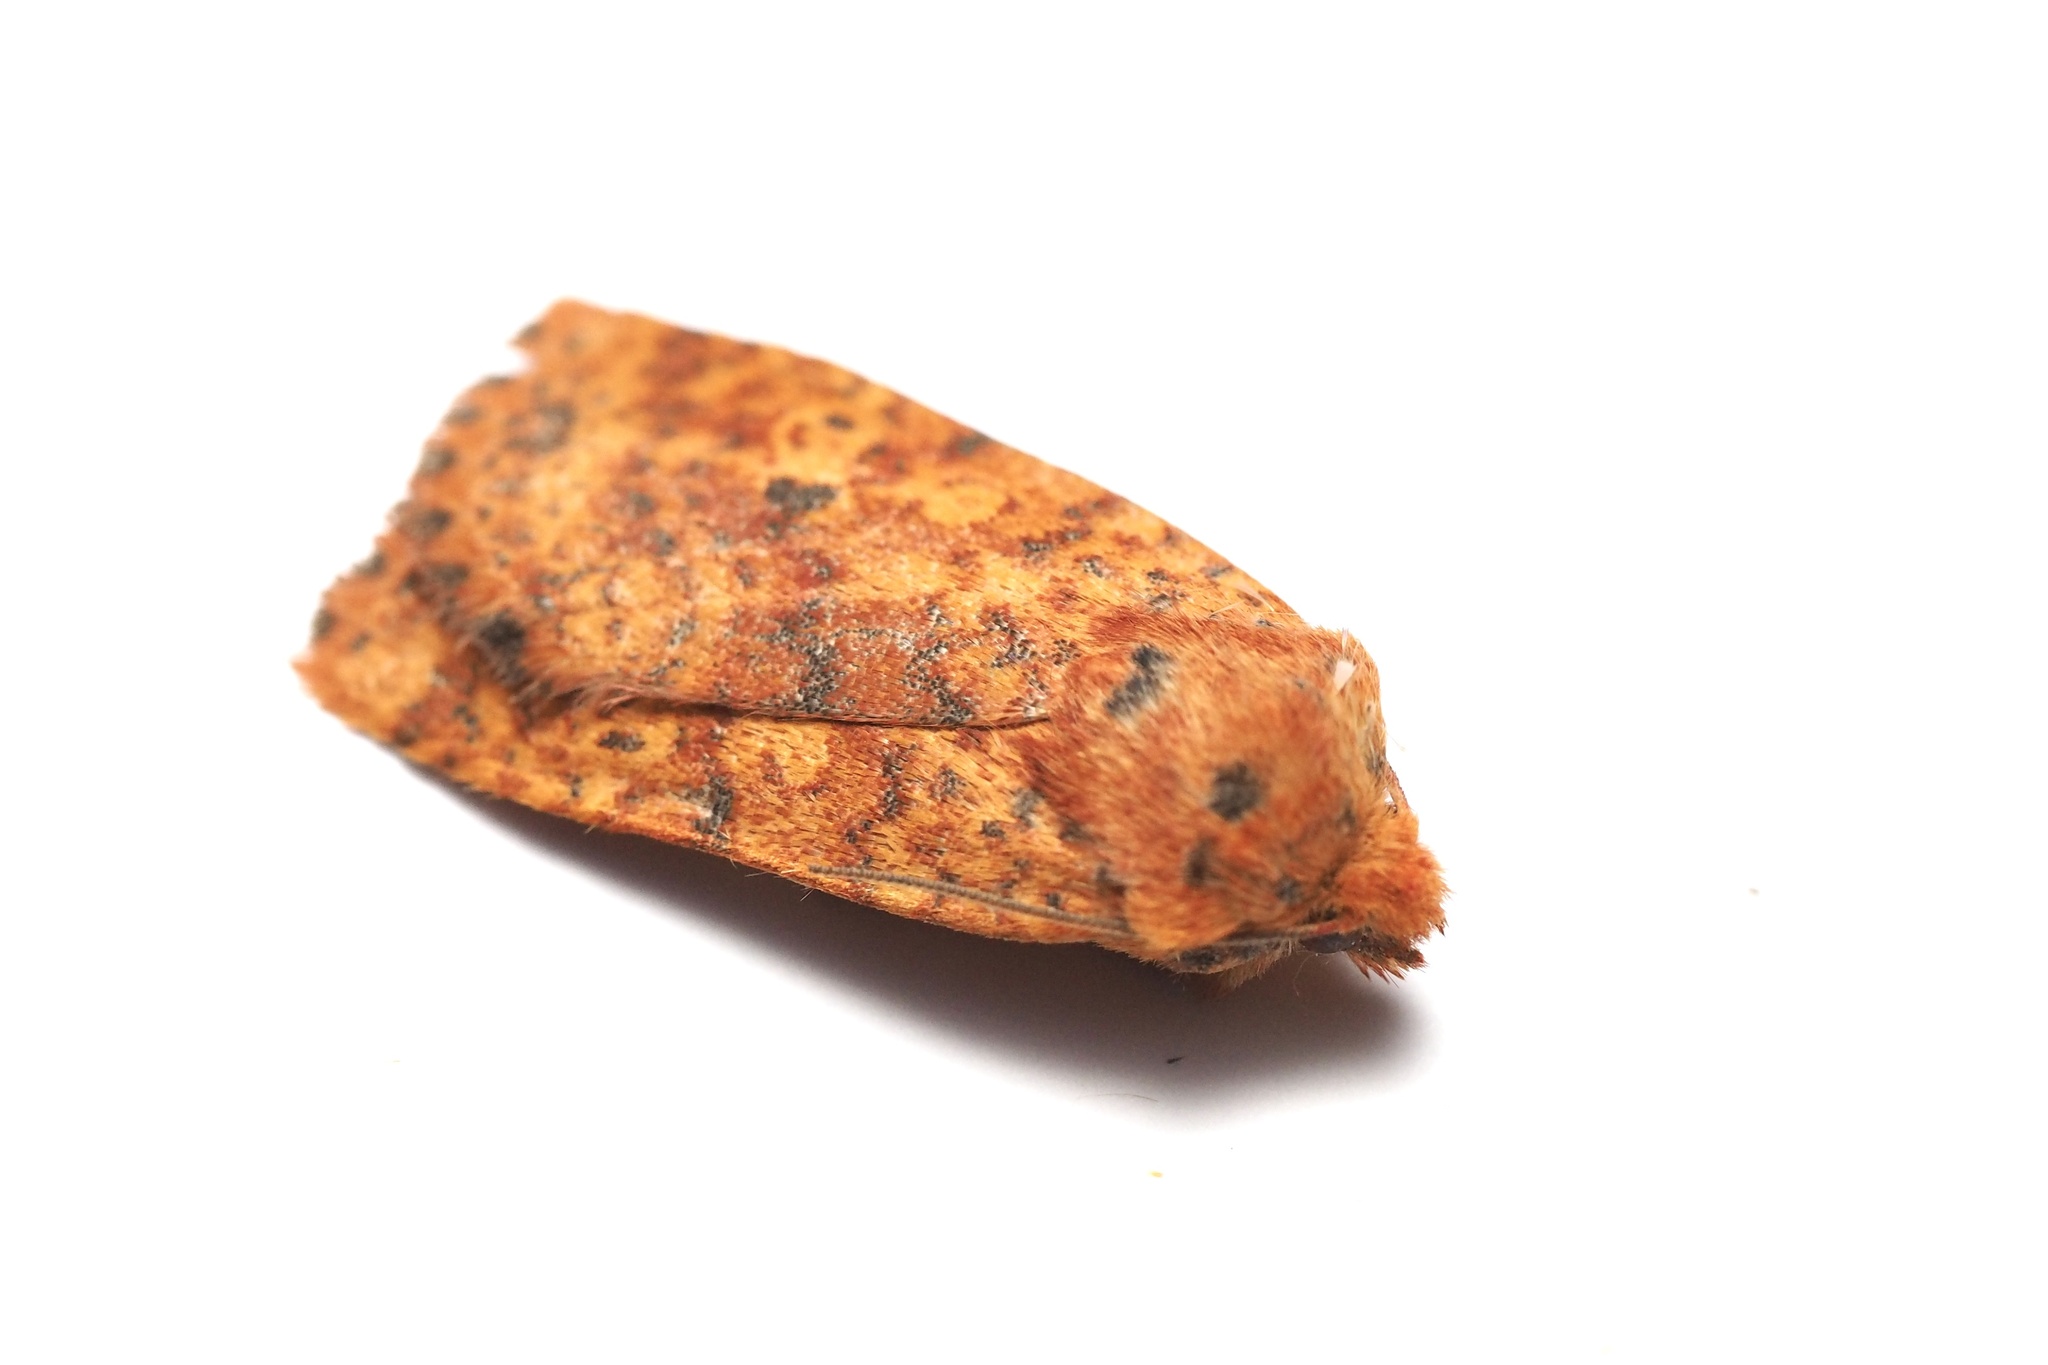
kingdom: Animalia
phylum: Arthropoda
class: Insecta
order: Lepidoptera
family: Noctuidae
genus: Conistra
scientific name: Conistra castaneofasciata
